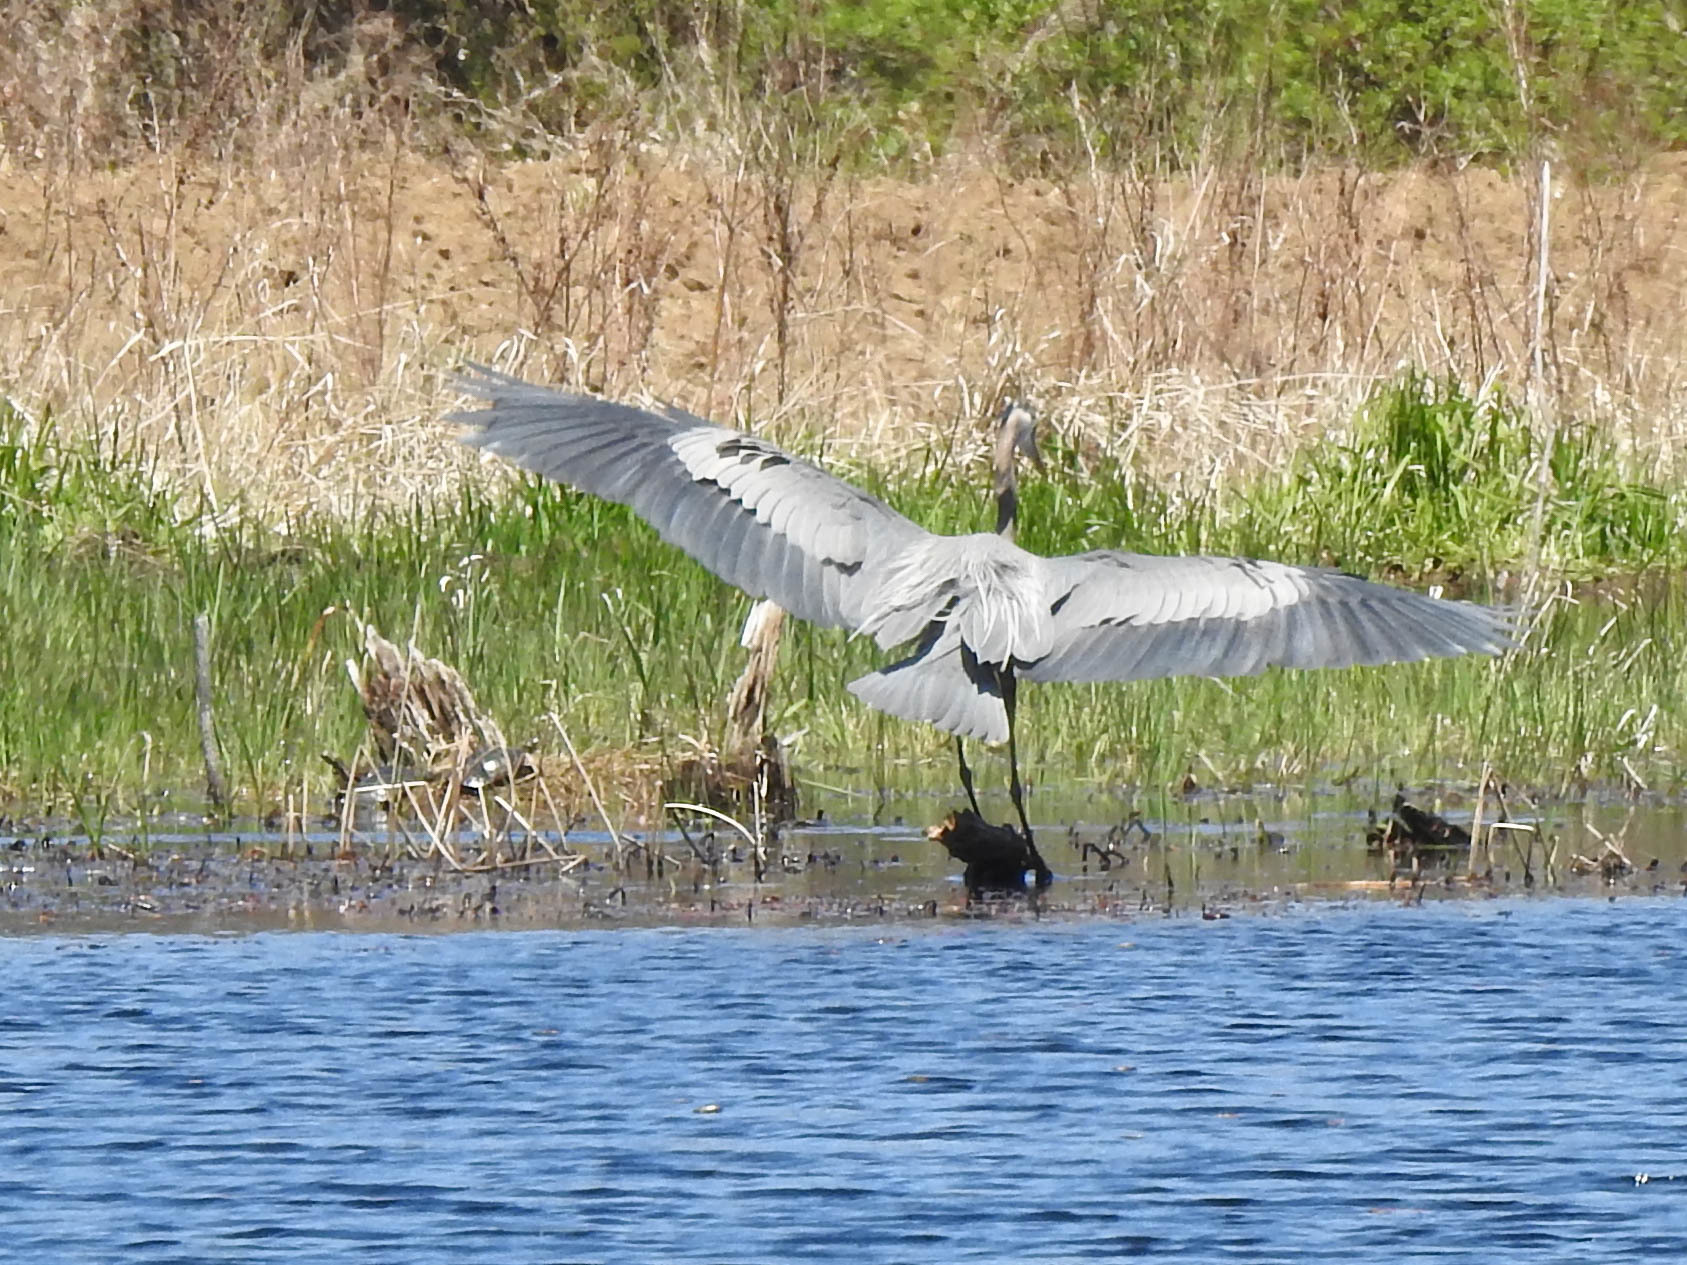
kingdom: Animalia
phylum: Chordata
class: Aves
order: Pelecaniformes
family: Ardeidae
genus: Ardea
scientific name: Ardea herodias
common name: Great blue heron
